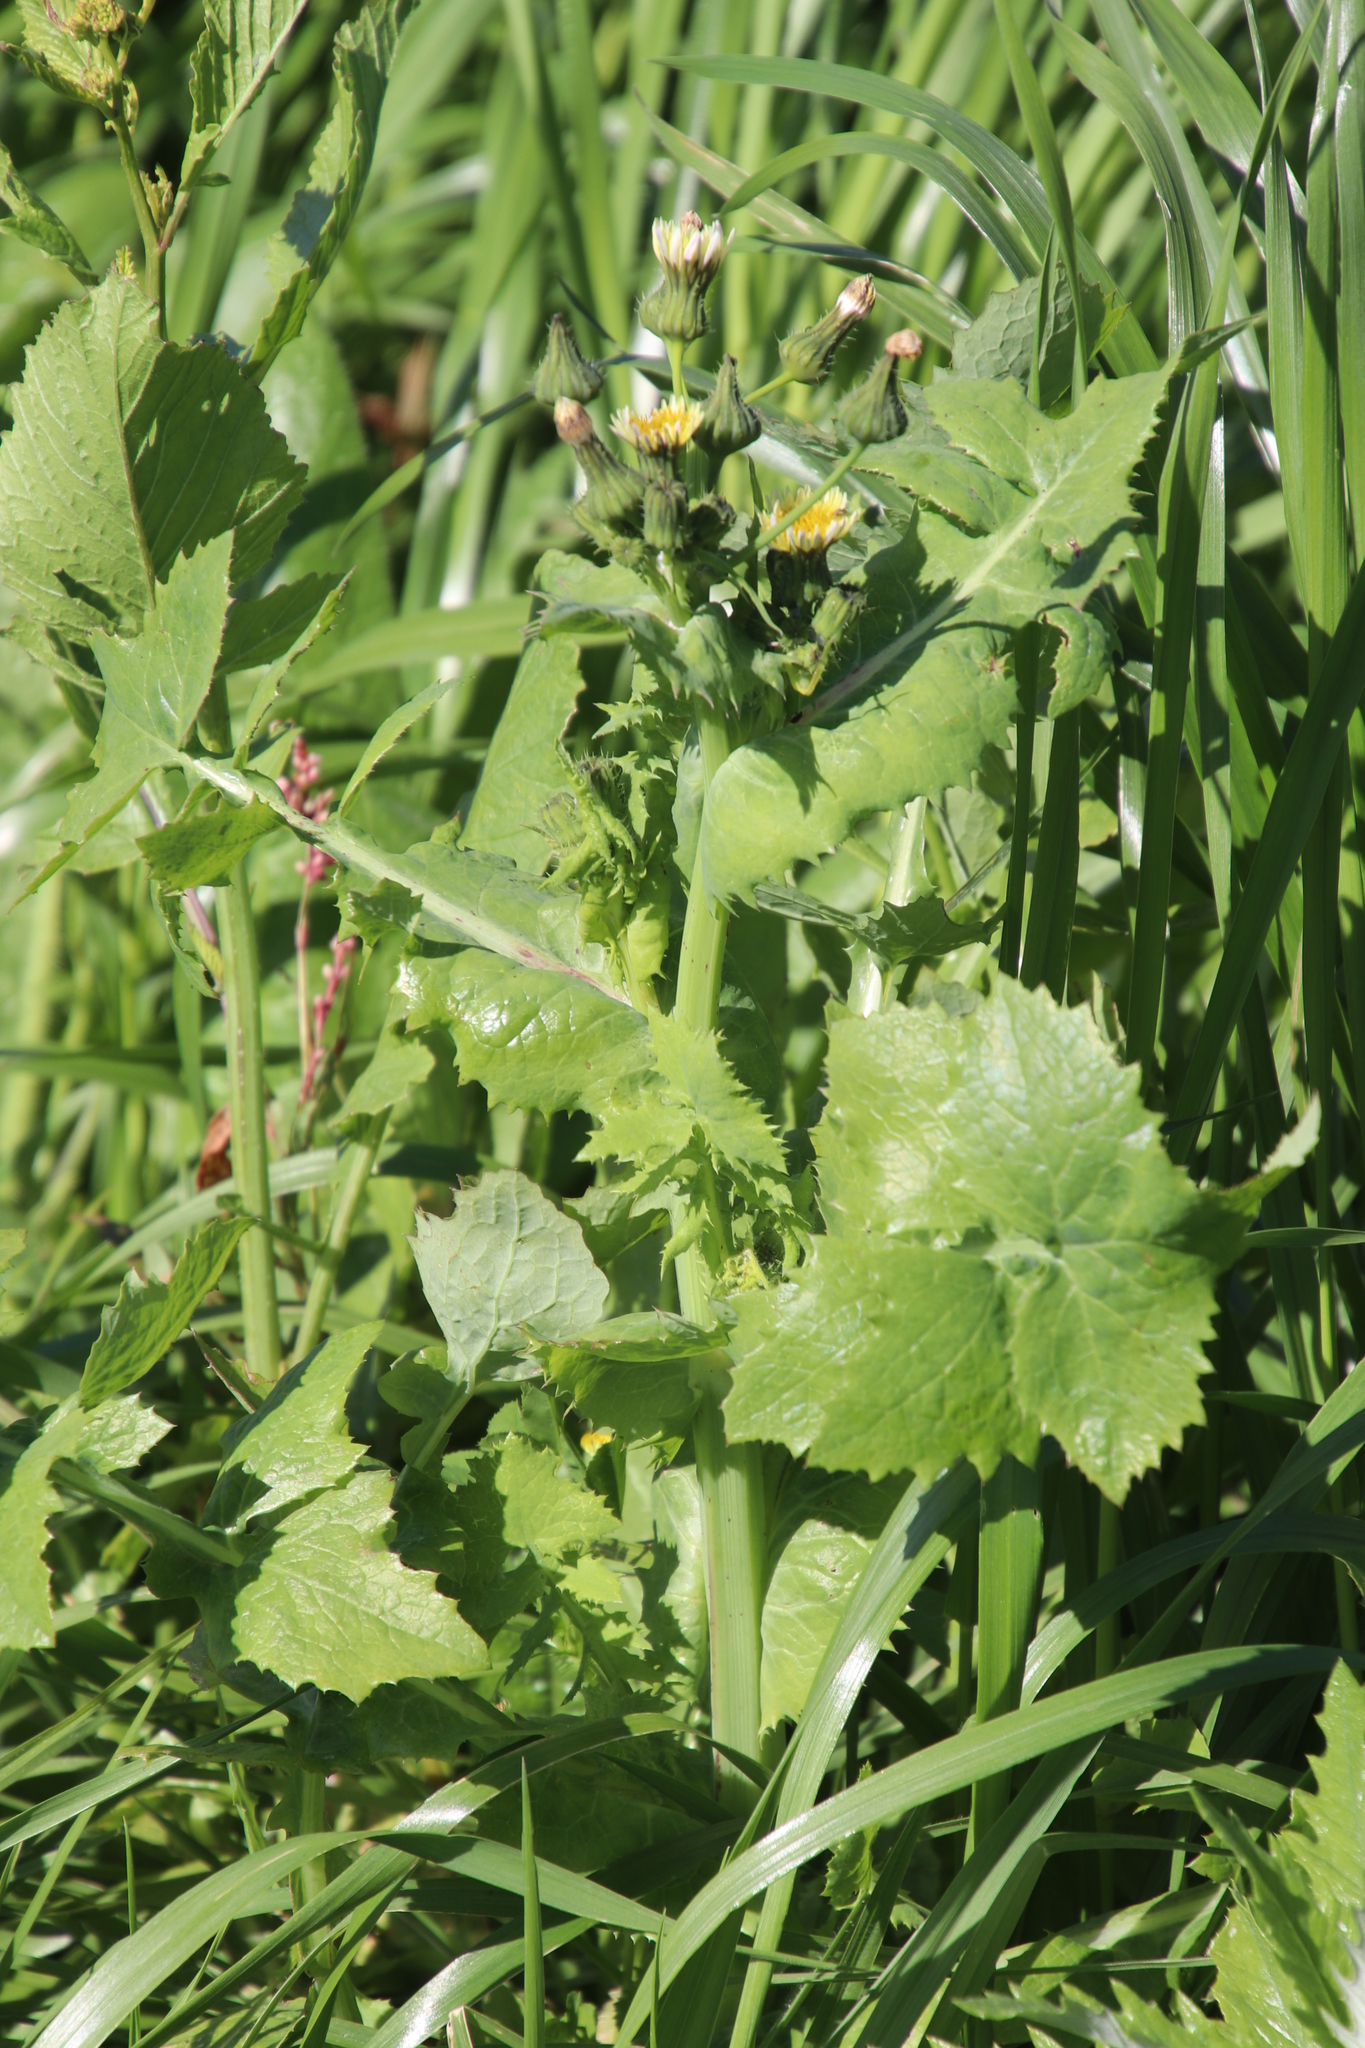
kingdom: Plantae
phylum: Tracheophyta
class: Magnoliopsida
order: Asterales
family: Asteraceae
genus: Sonchus
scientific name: Sonchus oleraceus
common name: Common sowthistle
